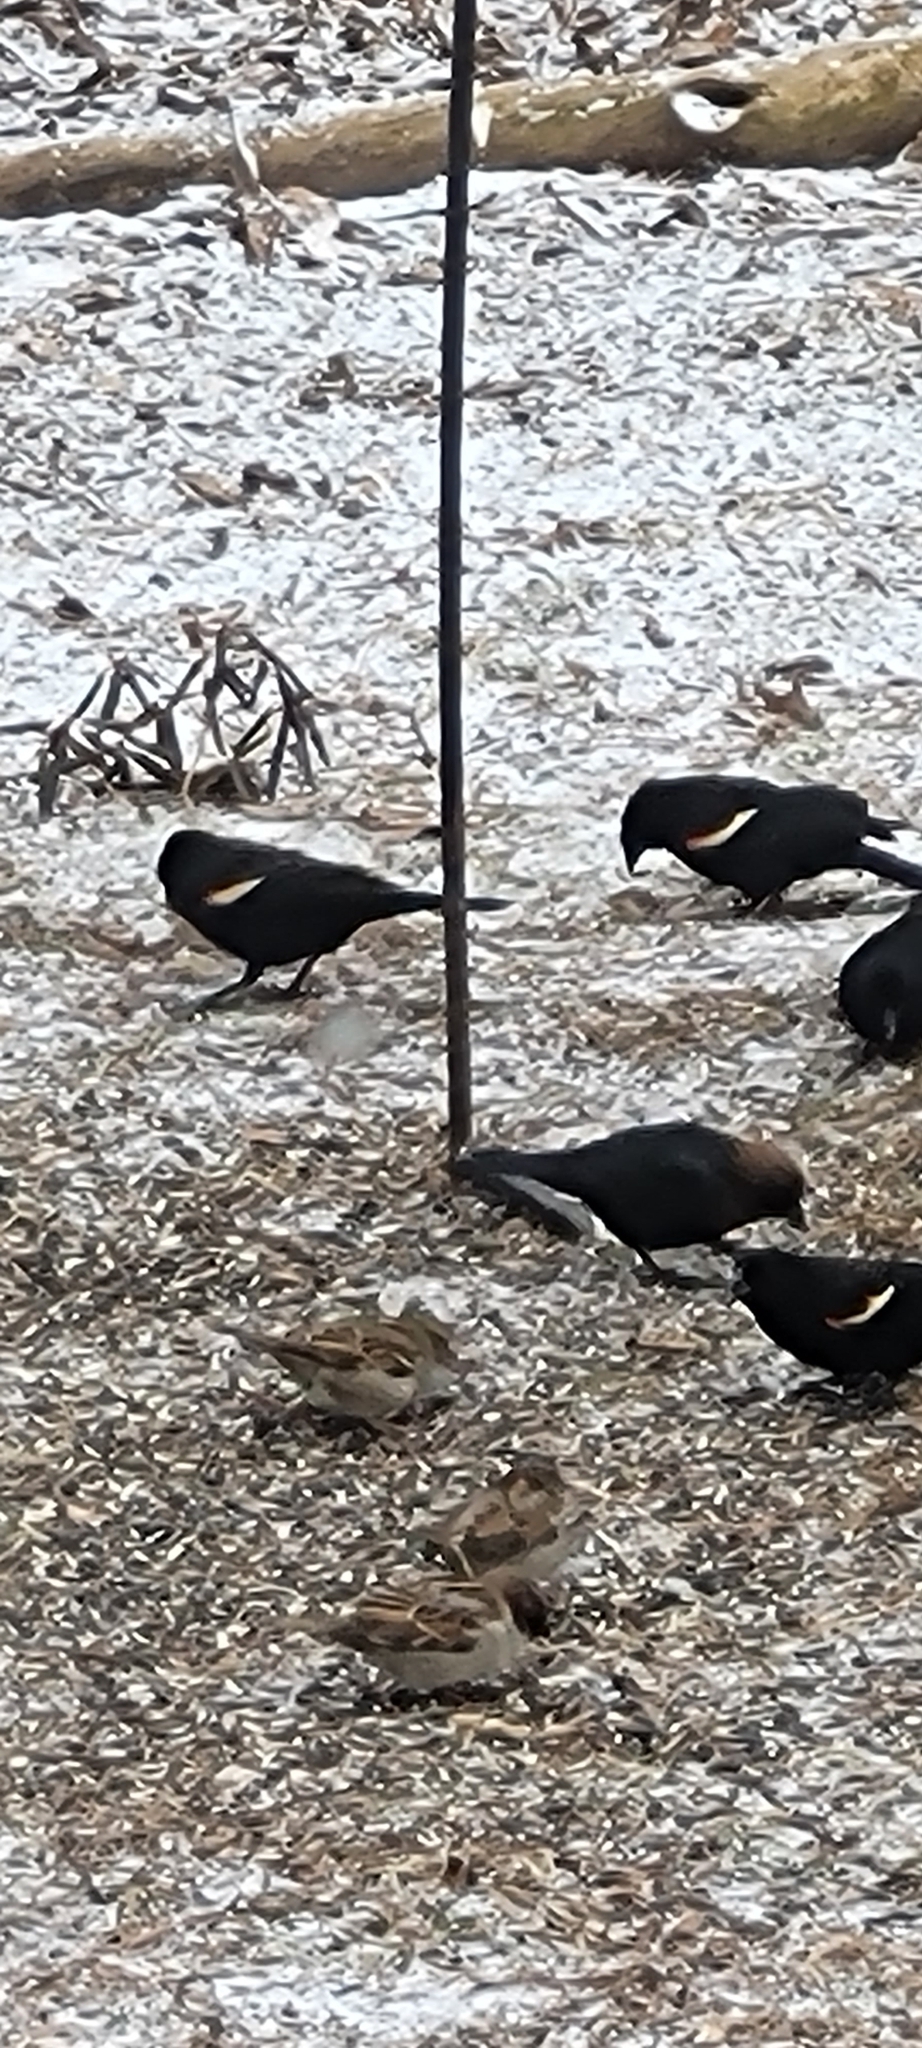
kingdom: Animalia
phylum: Chordata
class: Aves
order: Passeriformes
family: Icteridae
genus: Molothrus
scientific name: Molothrus ater
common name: Brown-headed cowbird
